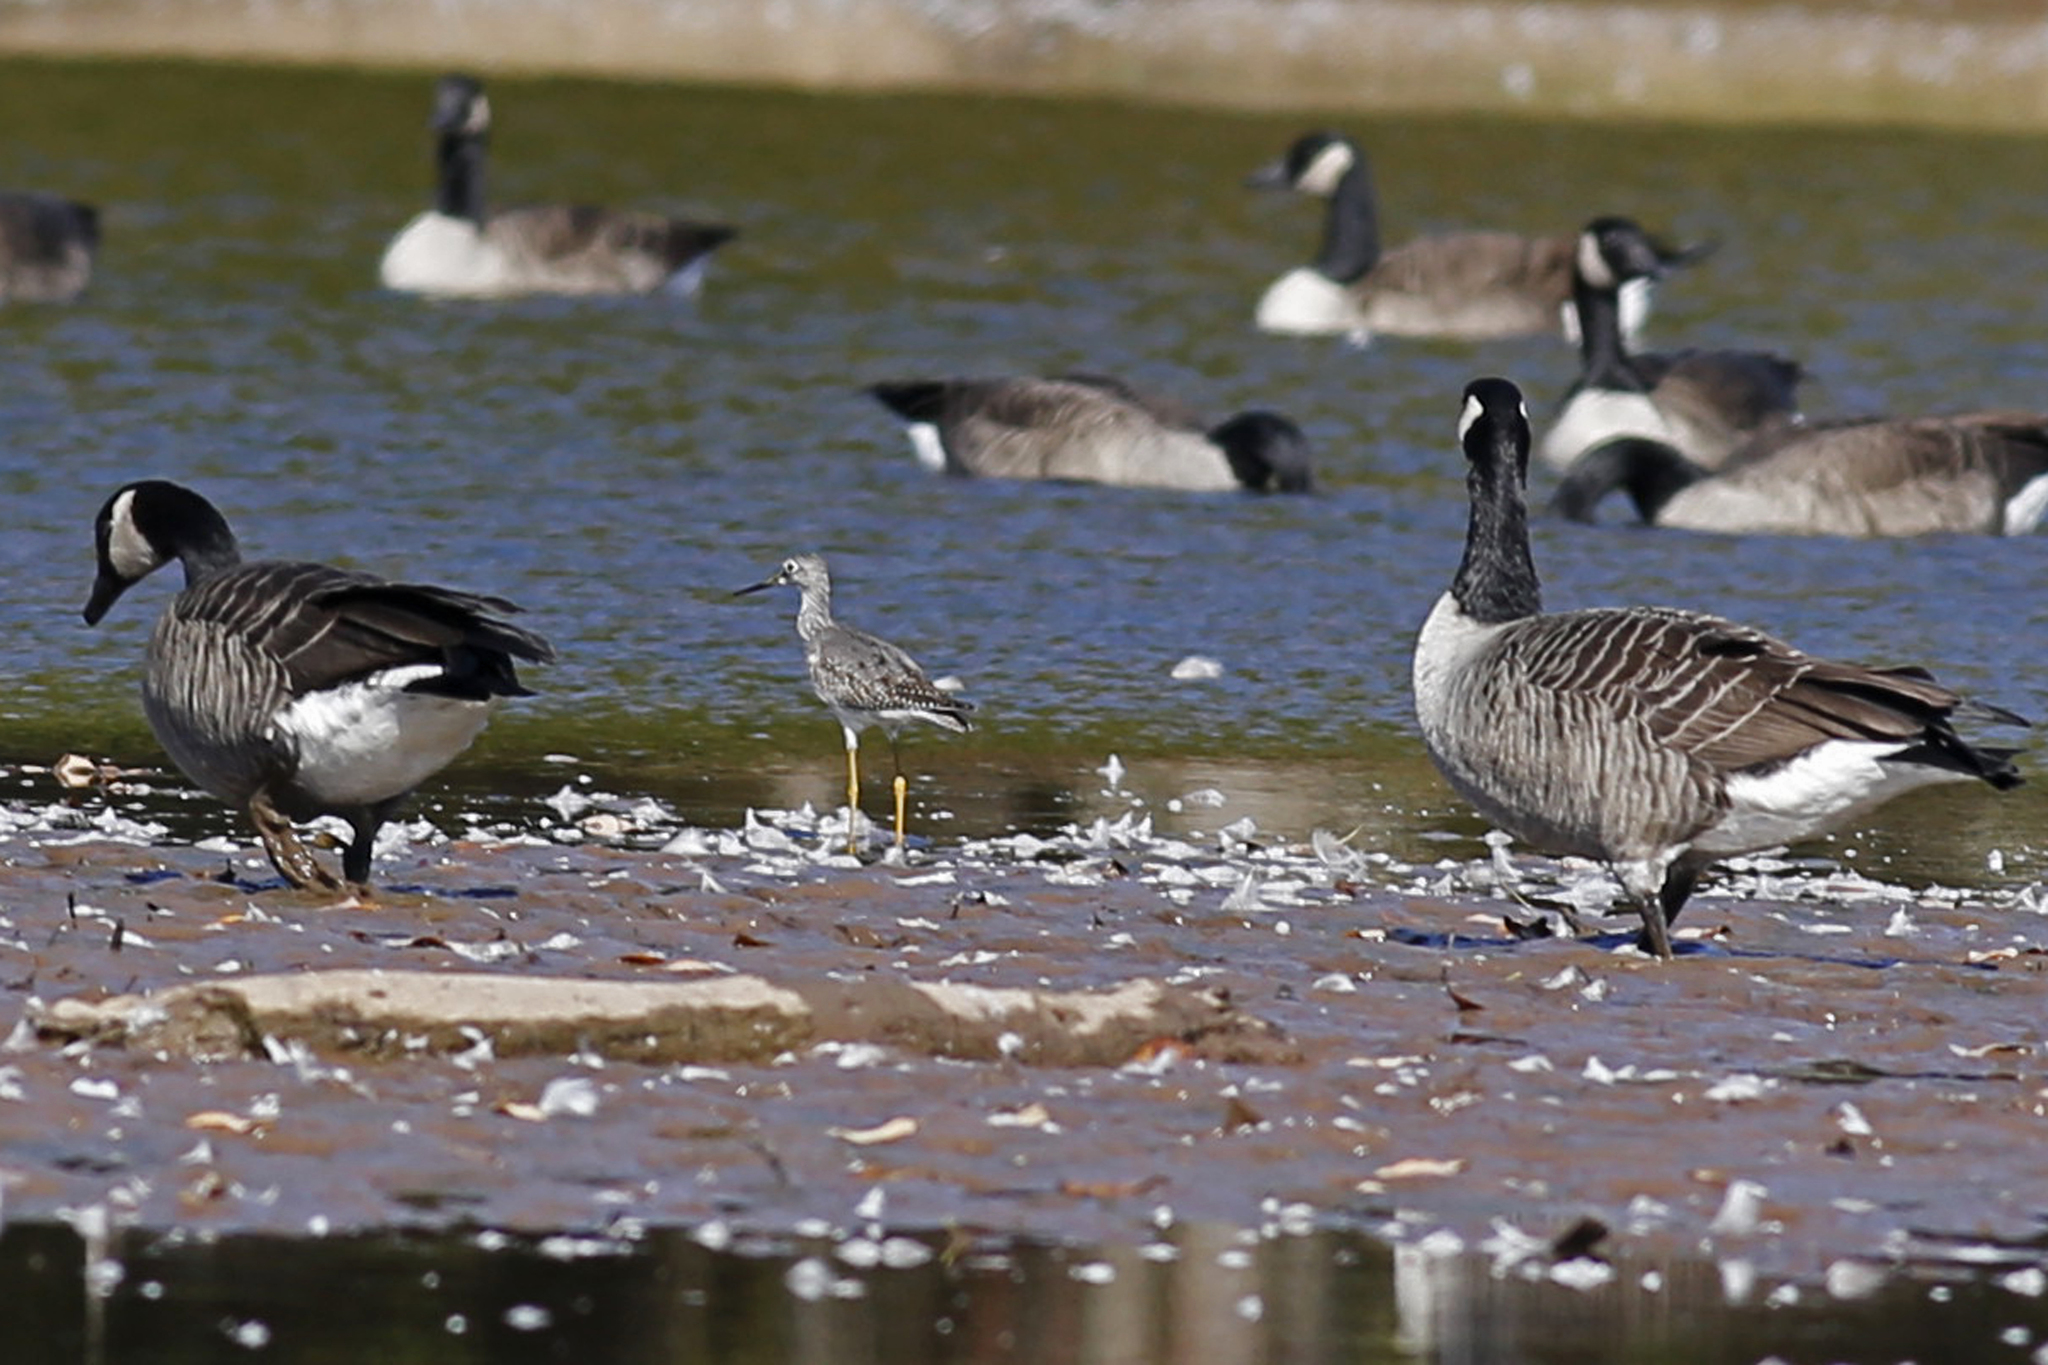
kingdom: Animalia
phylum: Chordata
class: Aves
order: Charadriiformes
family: Scolopacidae
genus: Tringa
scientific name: Tringa melanoleuca
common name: Greater yellowlegs
